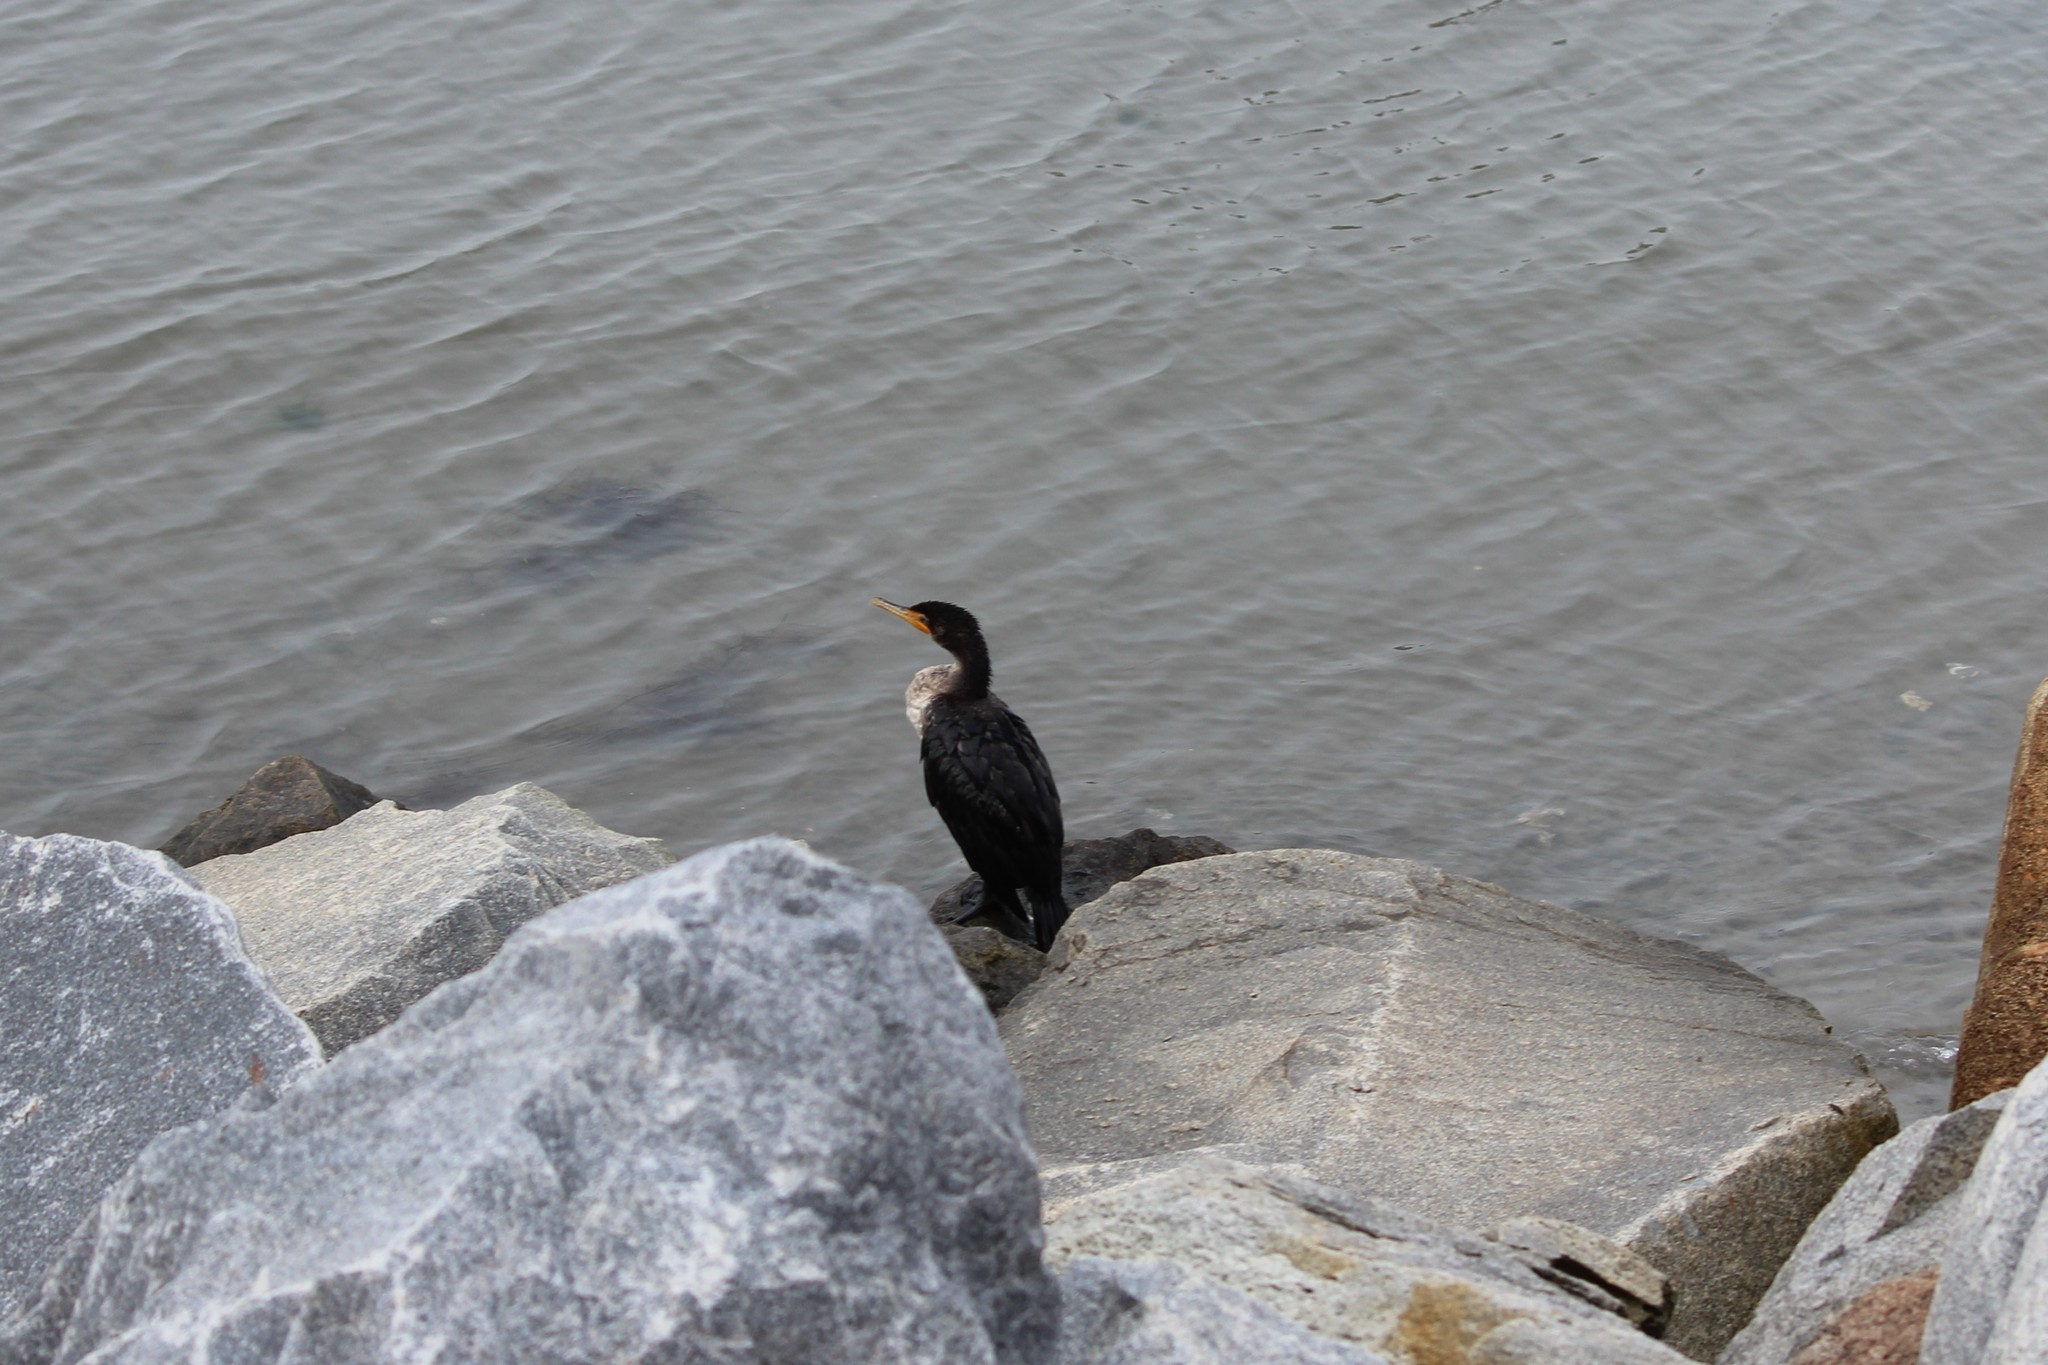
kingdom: Animalia
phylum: Chordata
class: Aves
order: Suliformes
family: Phalacrocoracidae
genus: Phalacrocorax
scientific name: Phalacrocorax auritus
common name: Double-crested cormorant
